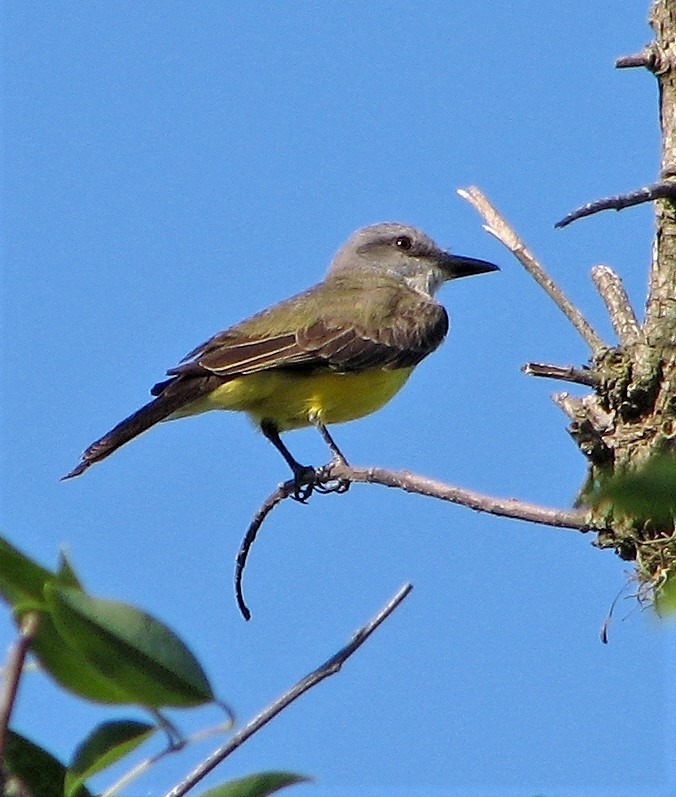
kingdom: Animalia
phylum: Chordata
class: Aves
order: Passeriformes
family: Tyrannidae
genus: Tyrannus
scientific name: Tyrannus melancholicus
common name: Tropical kingbird
